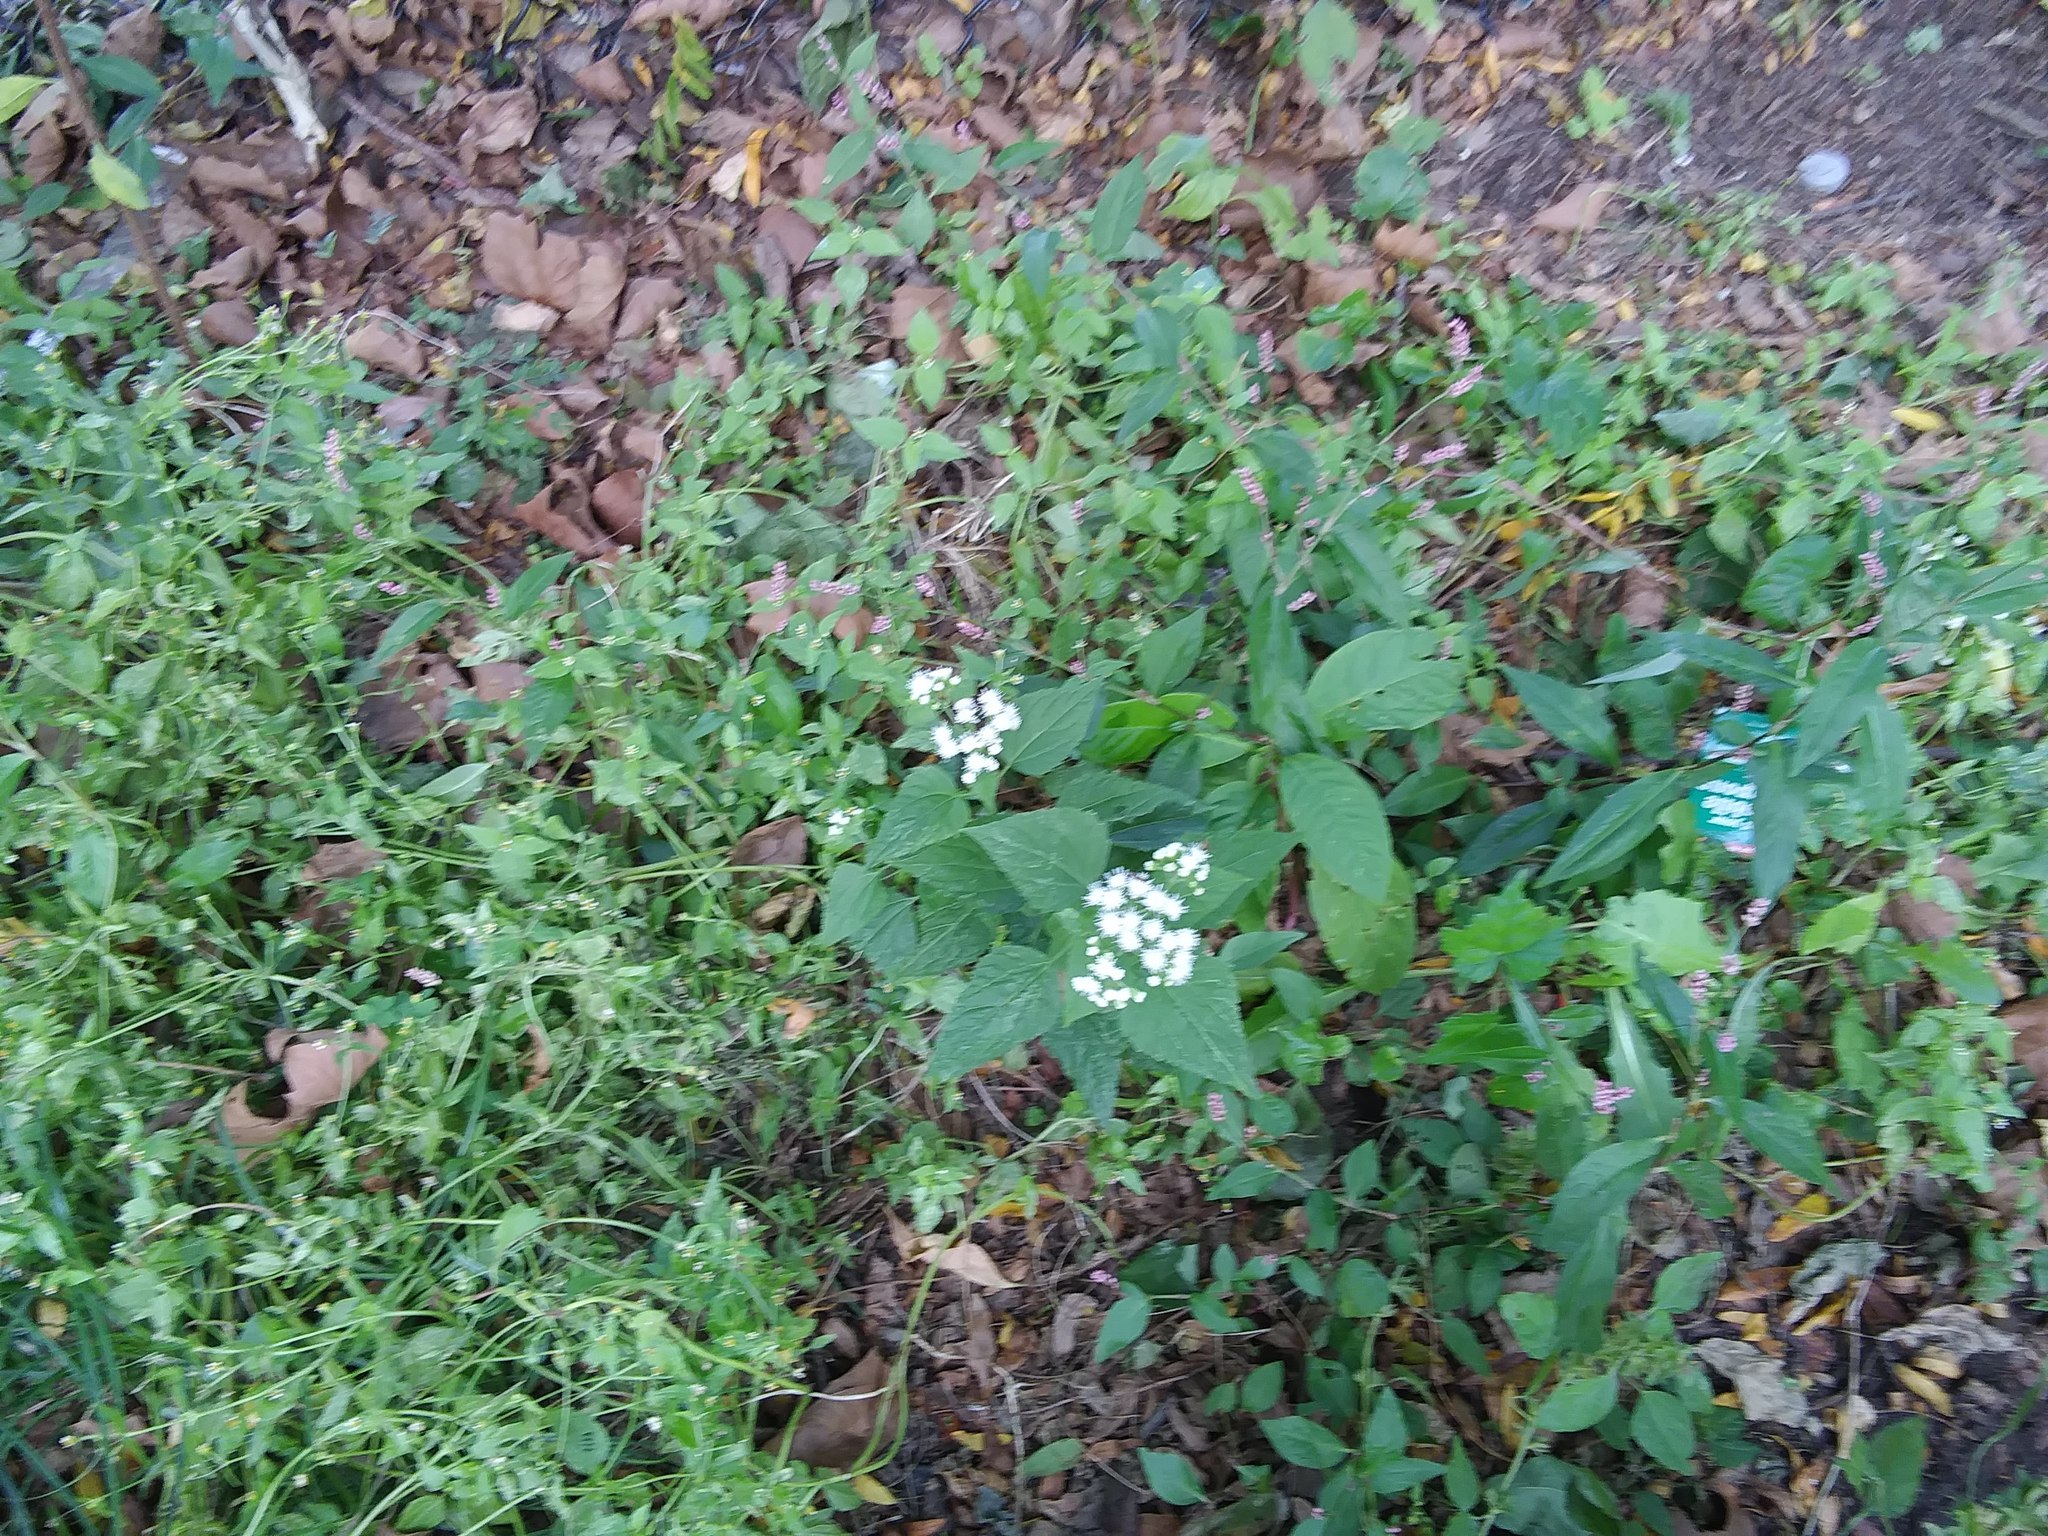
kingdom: Plantae
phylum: Tracheophyta
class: Magnoliopsida
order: Asterales
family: Asteraceae
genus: Ageratina
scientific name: Ageratina altissima
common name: White snakeroot
